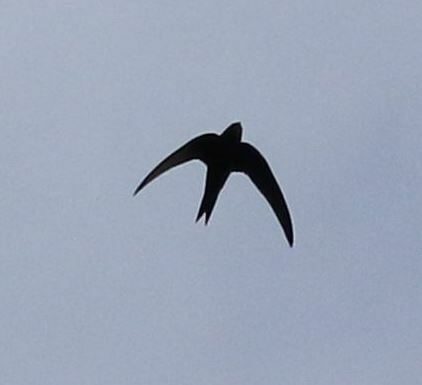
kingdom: Animalia
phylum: Chordata
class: Aves
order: Apodiformes
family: Apodidae
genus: Apus
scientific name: Apus apus
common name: Common swift
